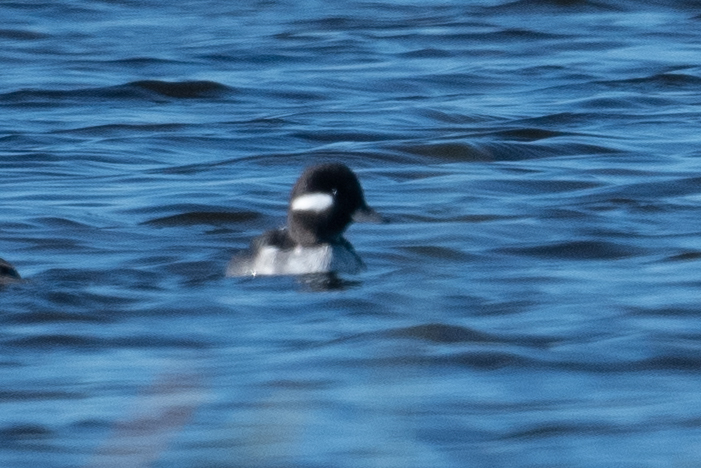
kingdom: Animalia
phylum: Chordata
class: Aves
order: Anseriformes
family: Anatidae
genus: Bucephala
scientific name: Bucephala albeola
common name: Bufflehead
